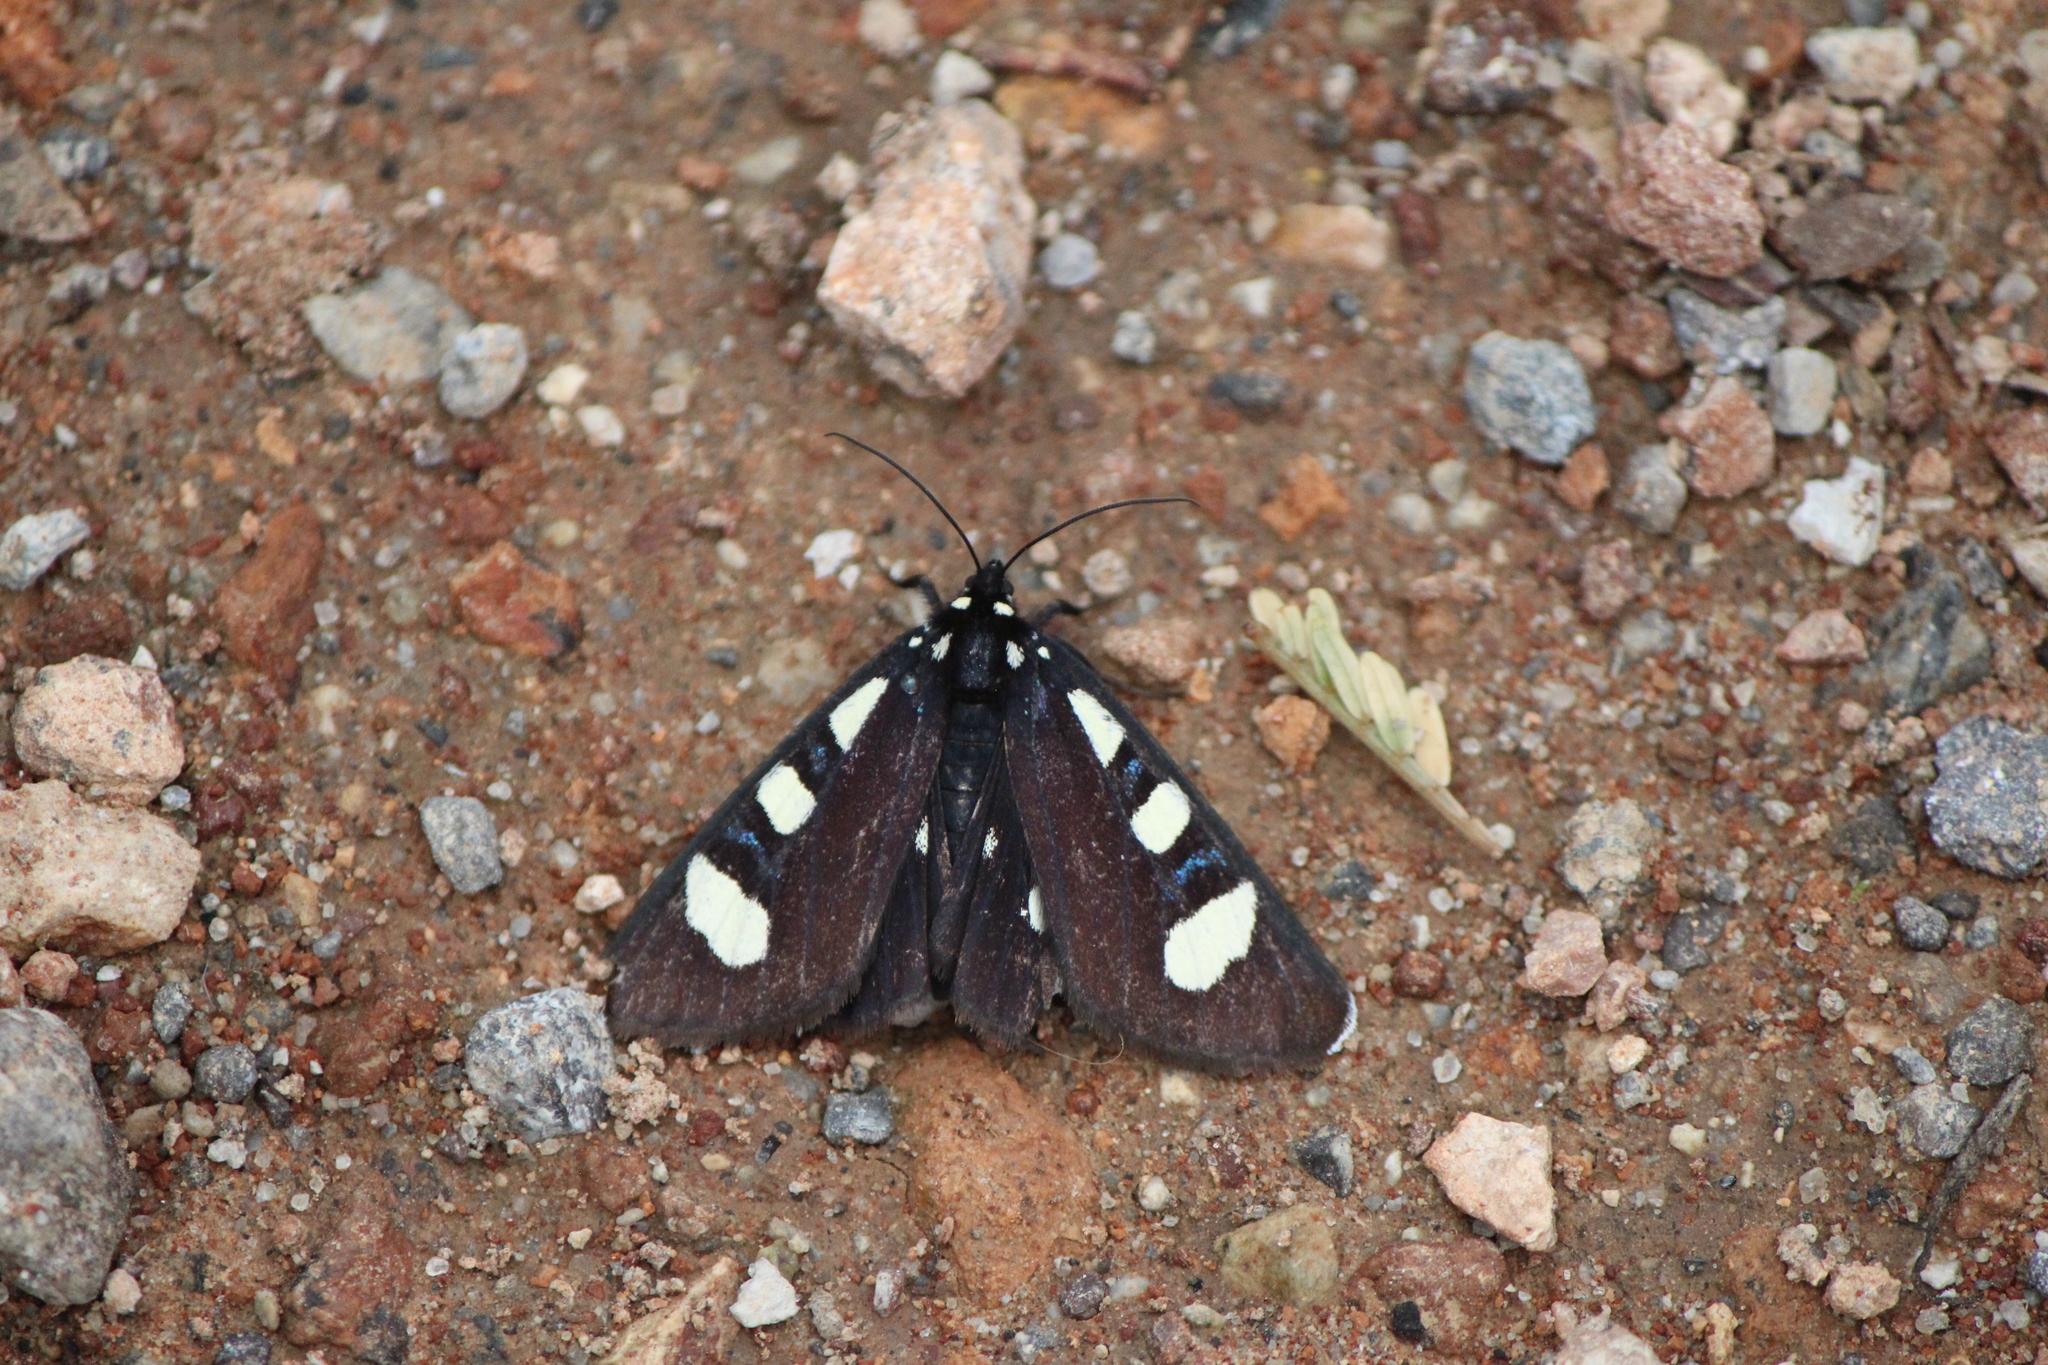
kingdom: Animalia
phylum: Arthropoda
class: Insecta
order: Lepidoptera
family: Noctuidae
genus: Alypiodes
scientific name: Alypiodes bimaculata
